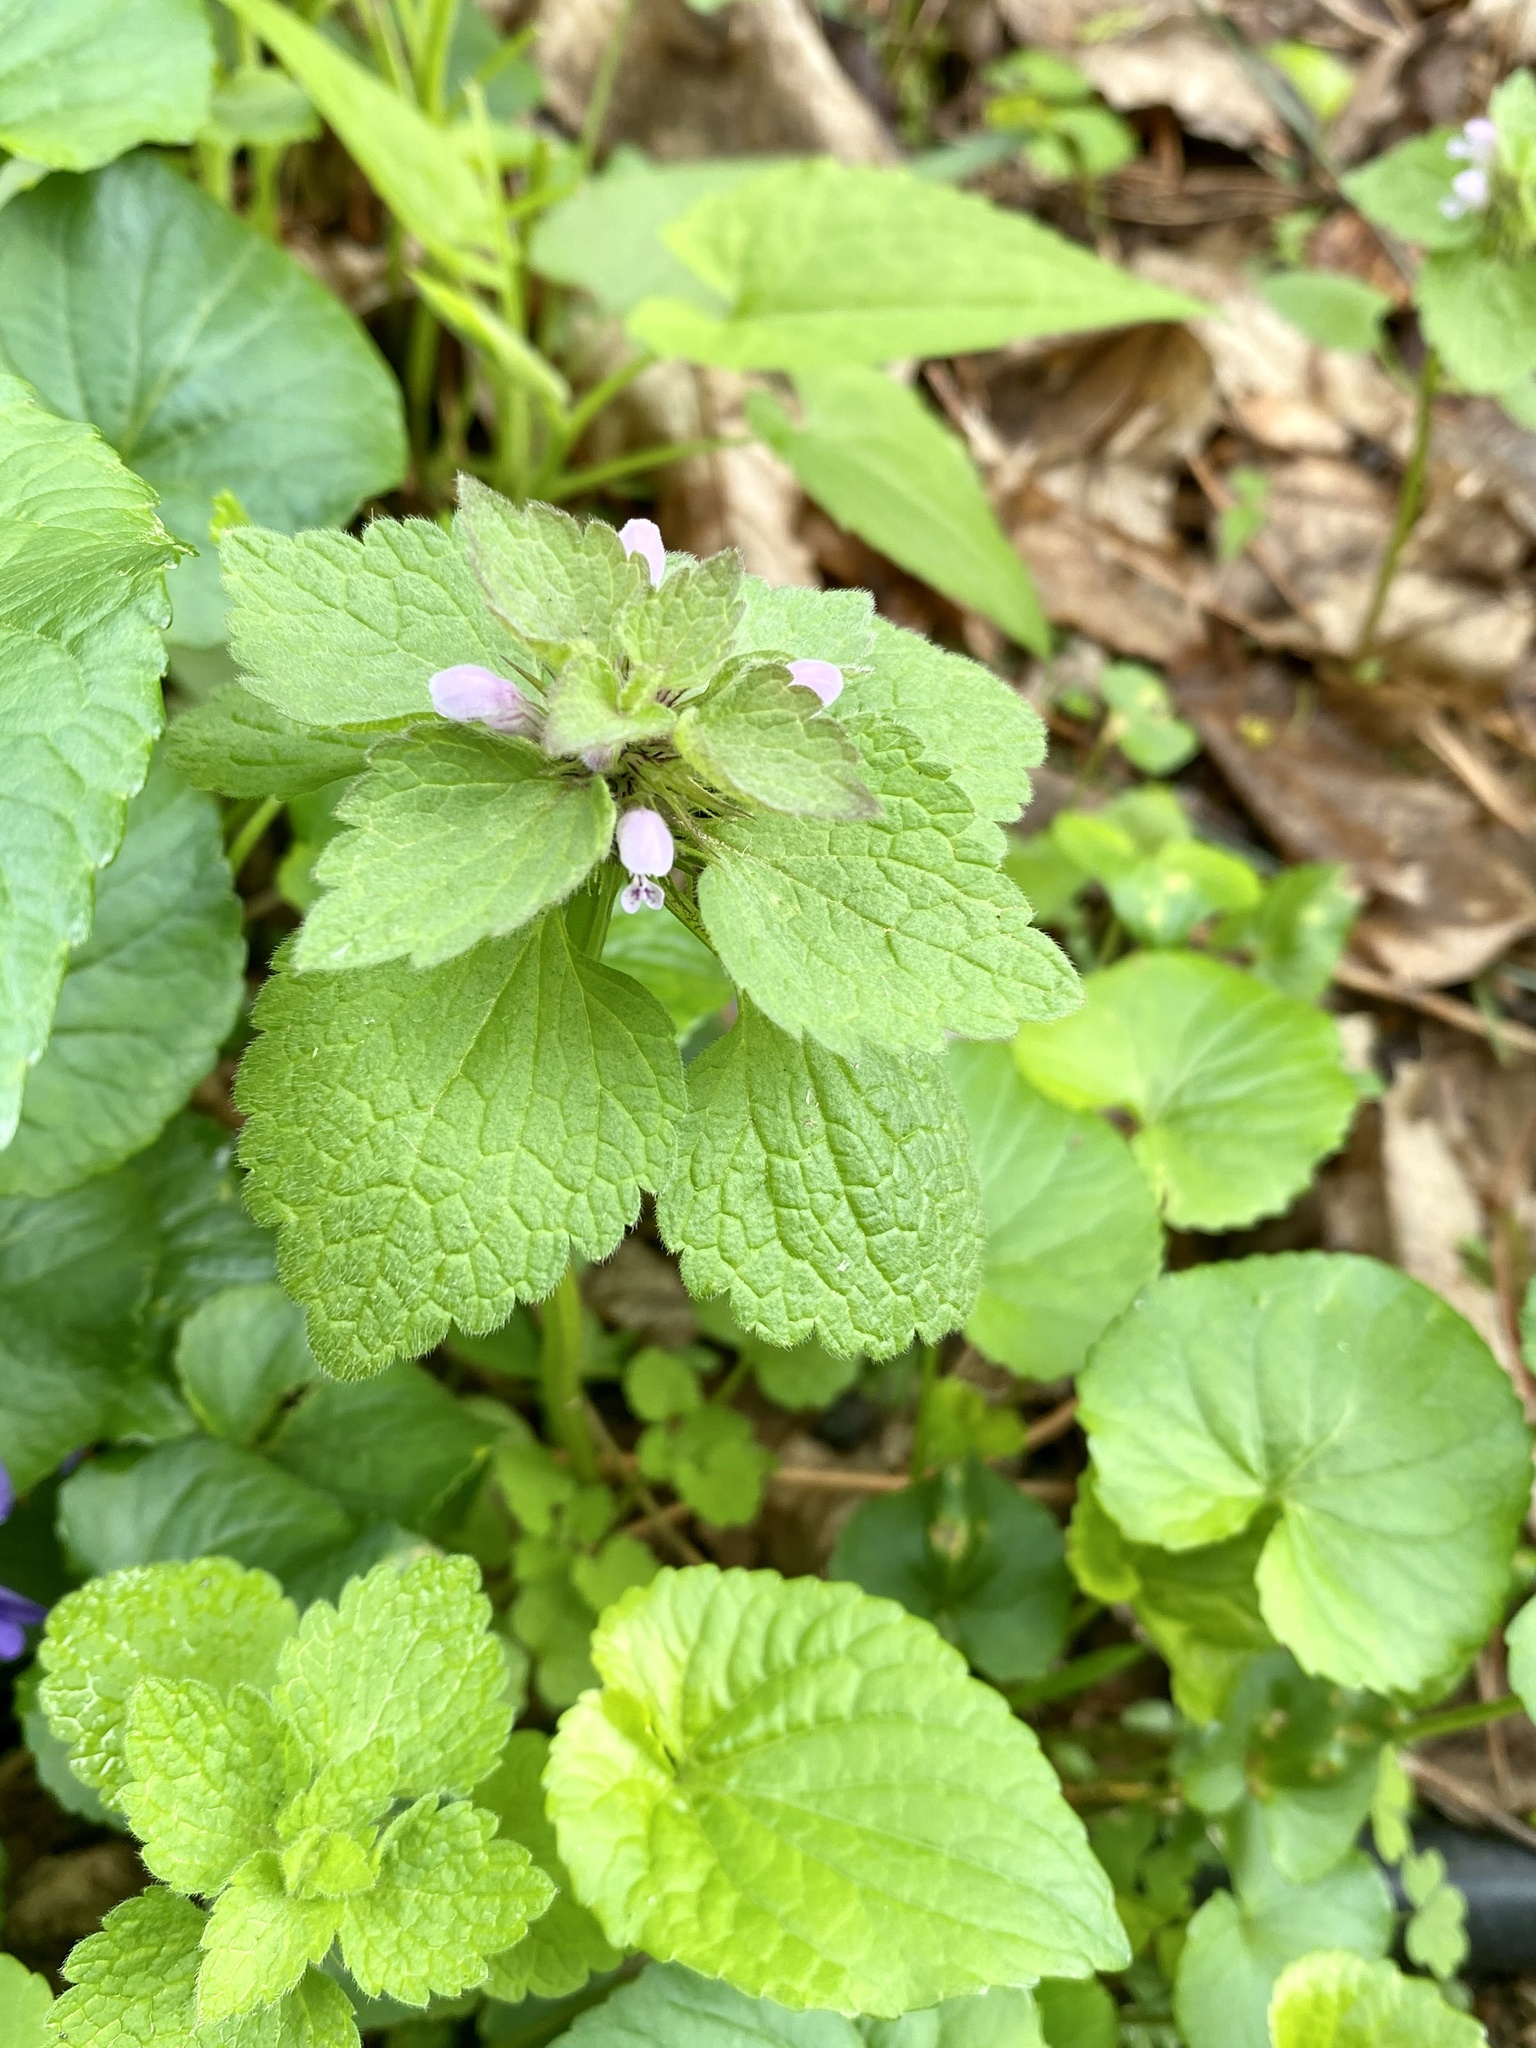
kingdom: Plantae
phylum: Tracheophyta
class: Magnoliopsida
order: Lamiales
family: Lamiaceae
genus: Lamium
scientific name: Lamium purpureum
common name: Red dead-nettle
